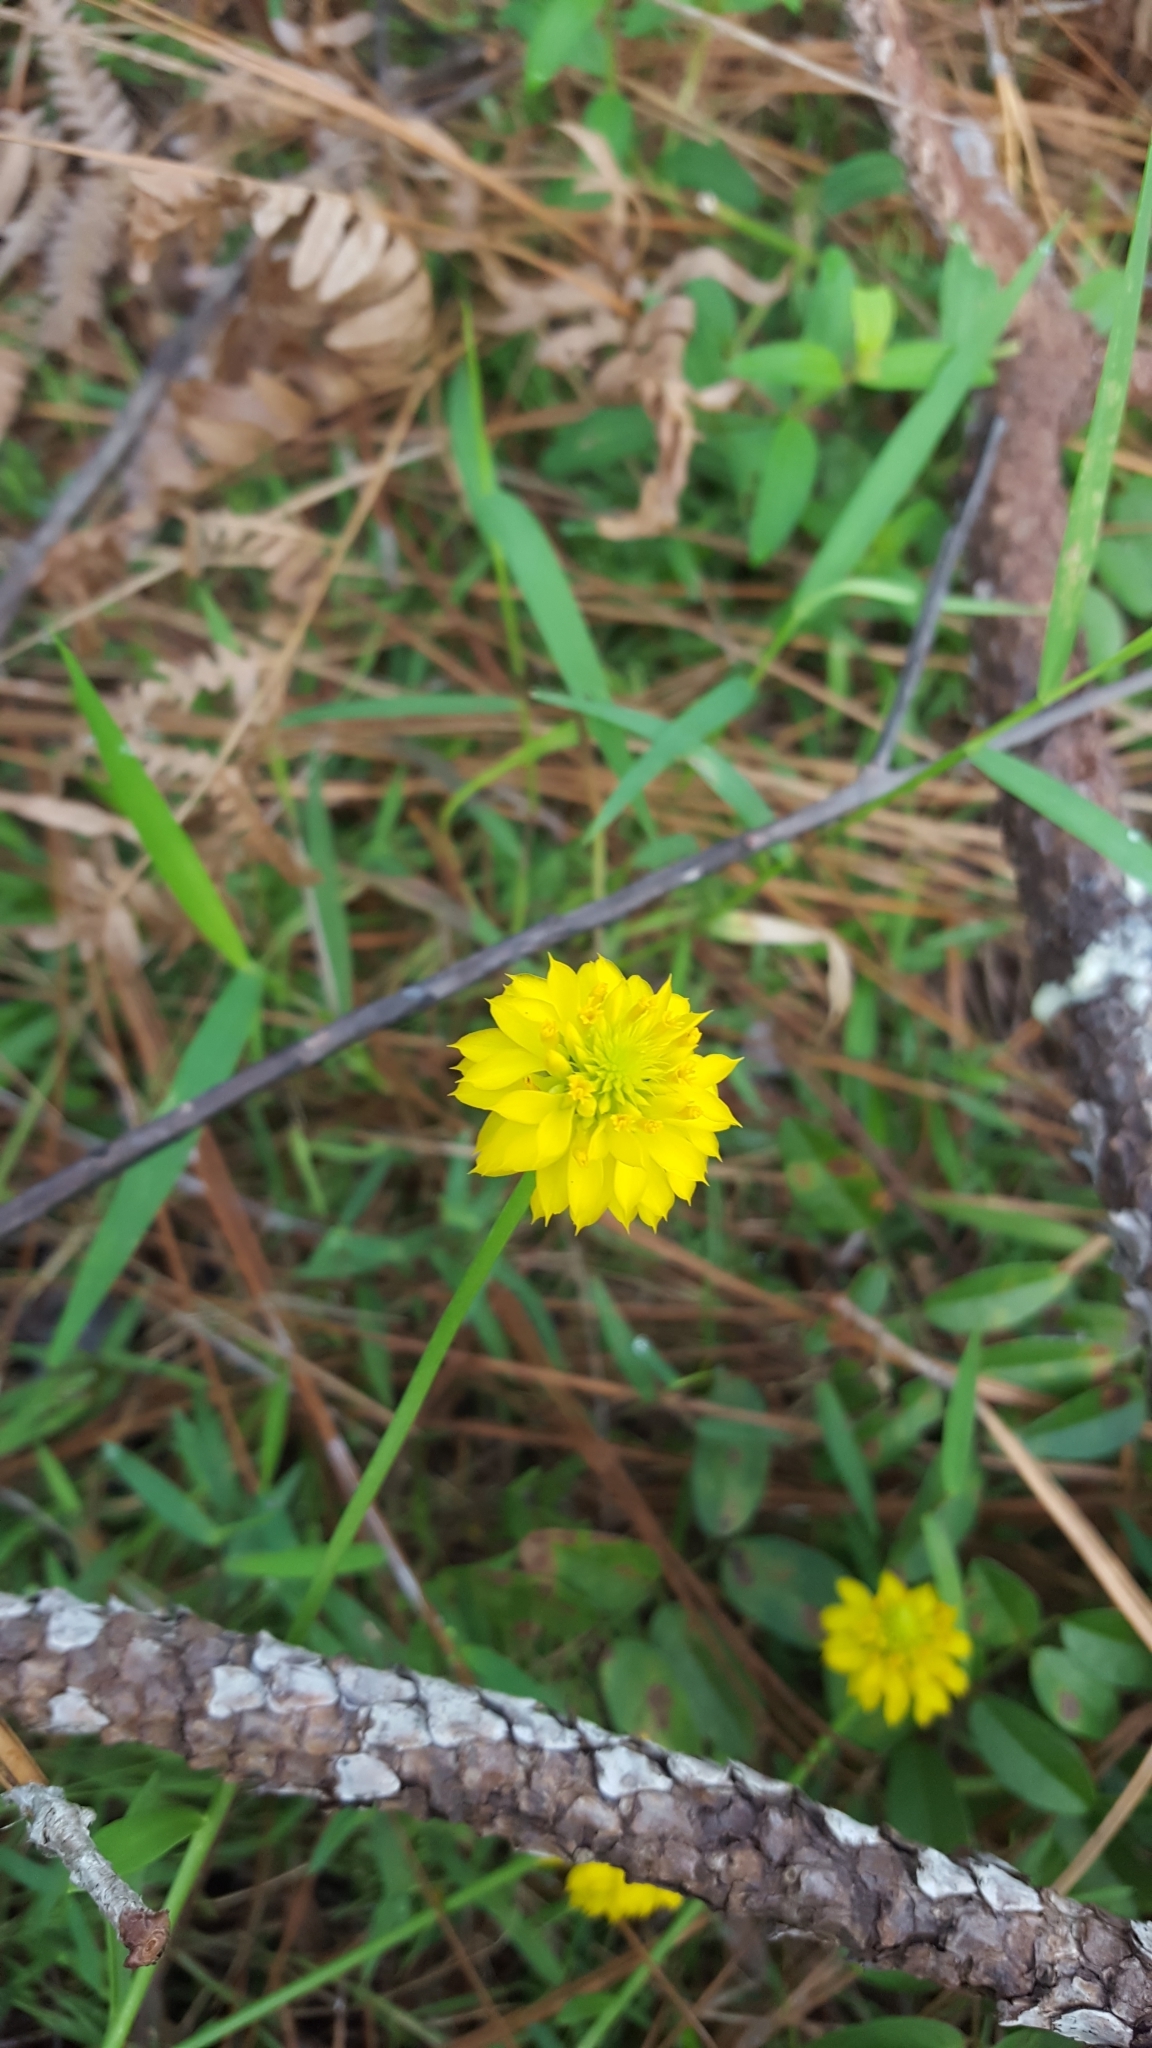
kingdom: Plantae
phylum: Tracheophyta
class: Magnoliopsida
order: Fabales
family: Polygalaceae
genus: Polygala
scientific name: Polygala rugelii
